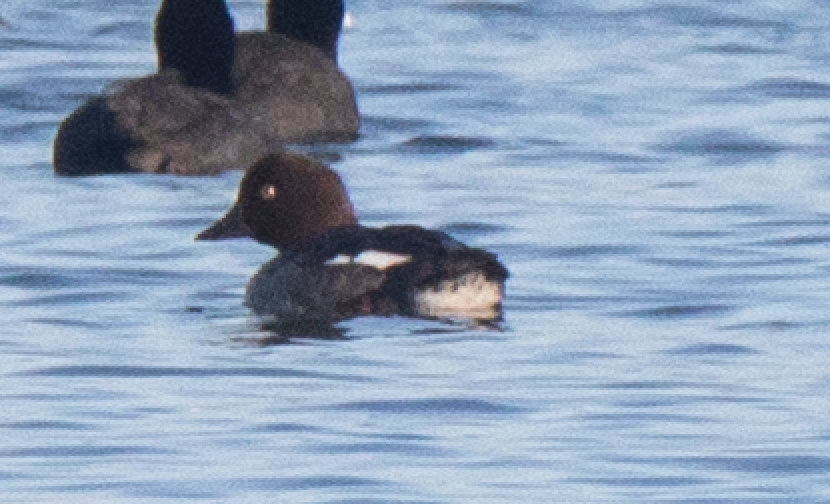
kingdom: Animalia
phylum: Chordata
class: Aves
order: Anseriformes
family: Anatidae
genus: Bucephala
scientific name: Bucephala clangula
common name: Common goldeneye
